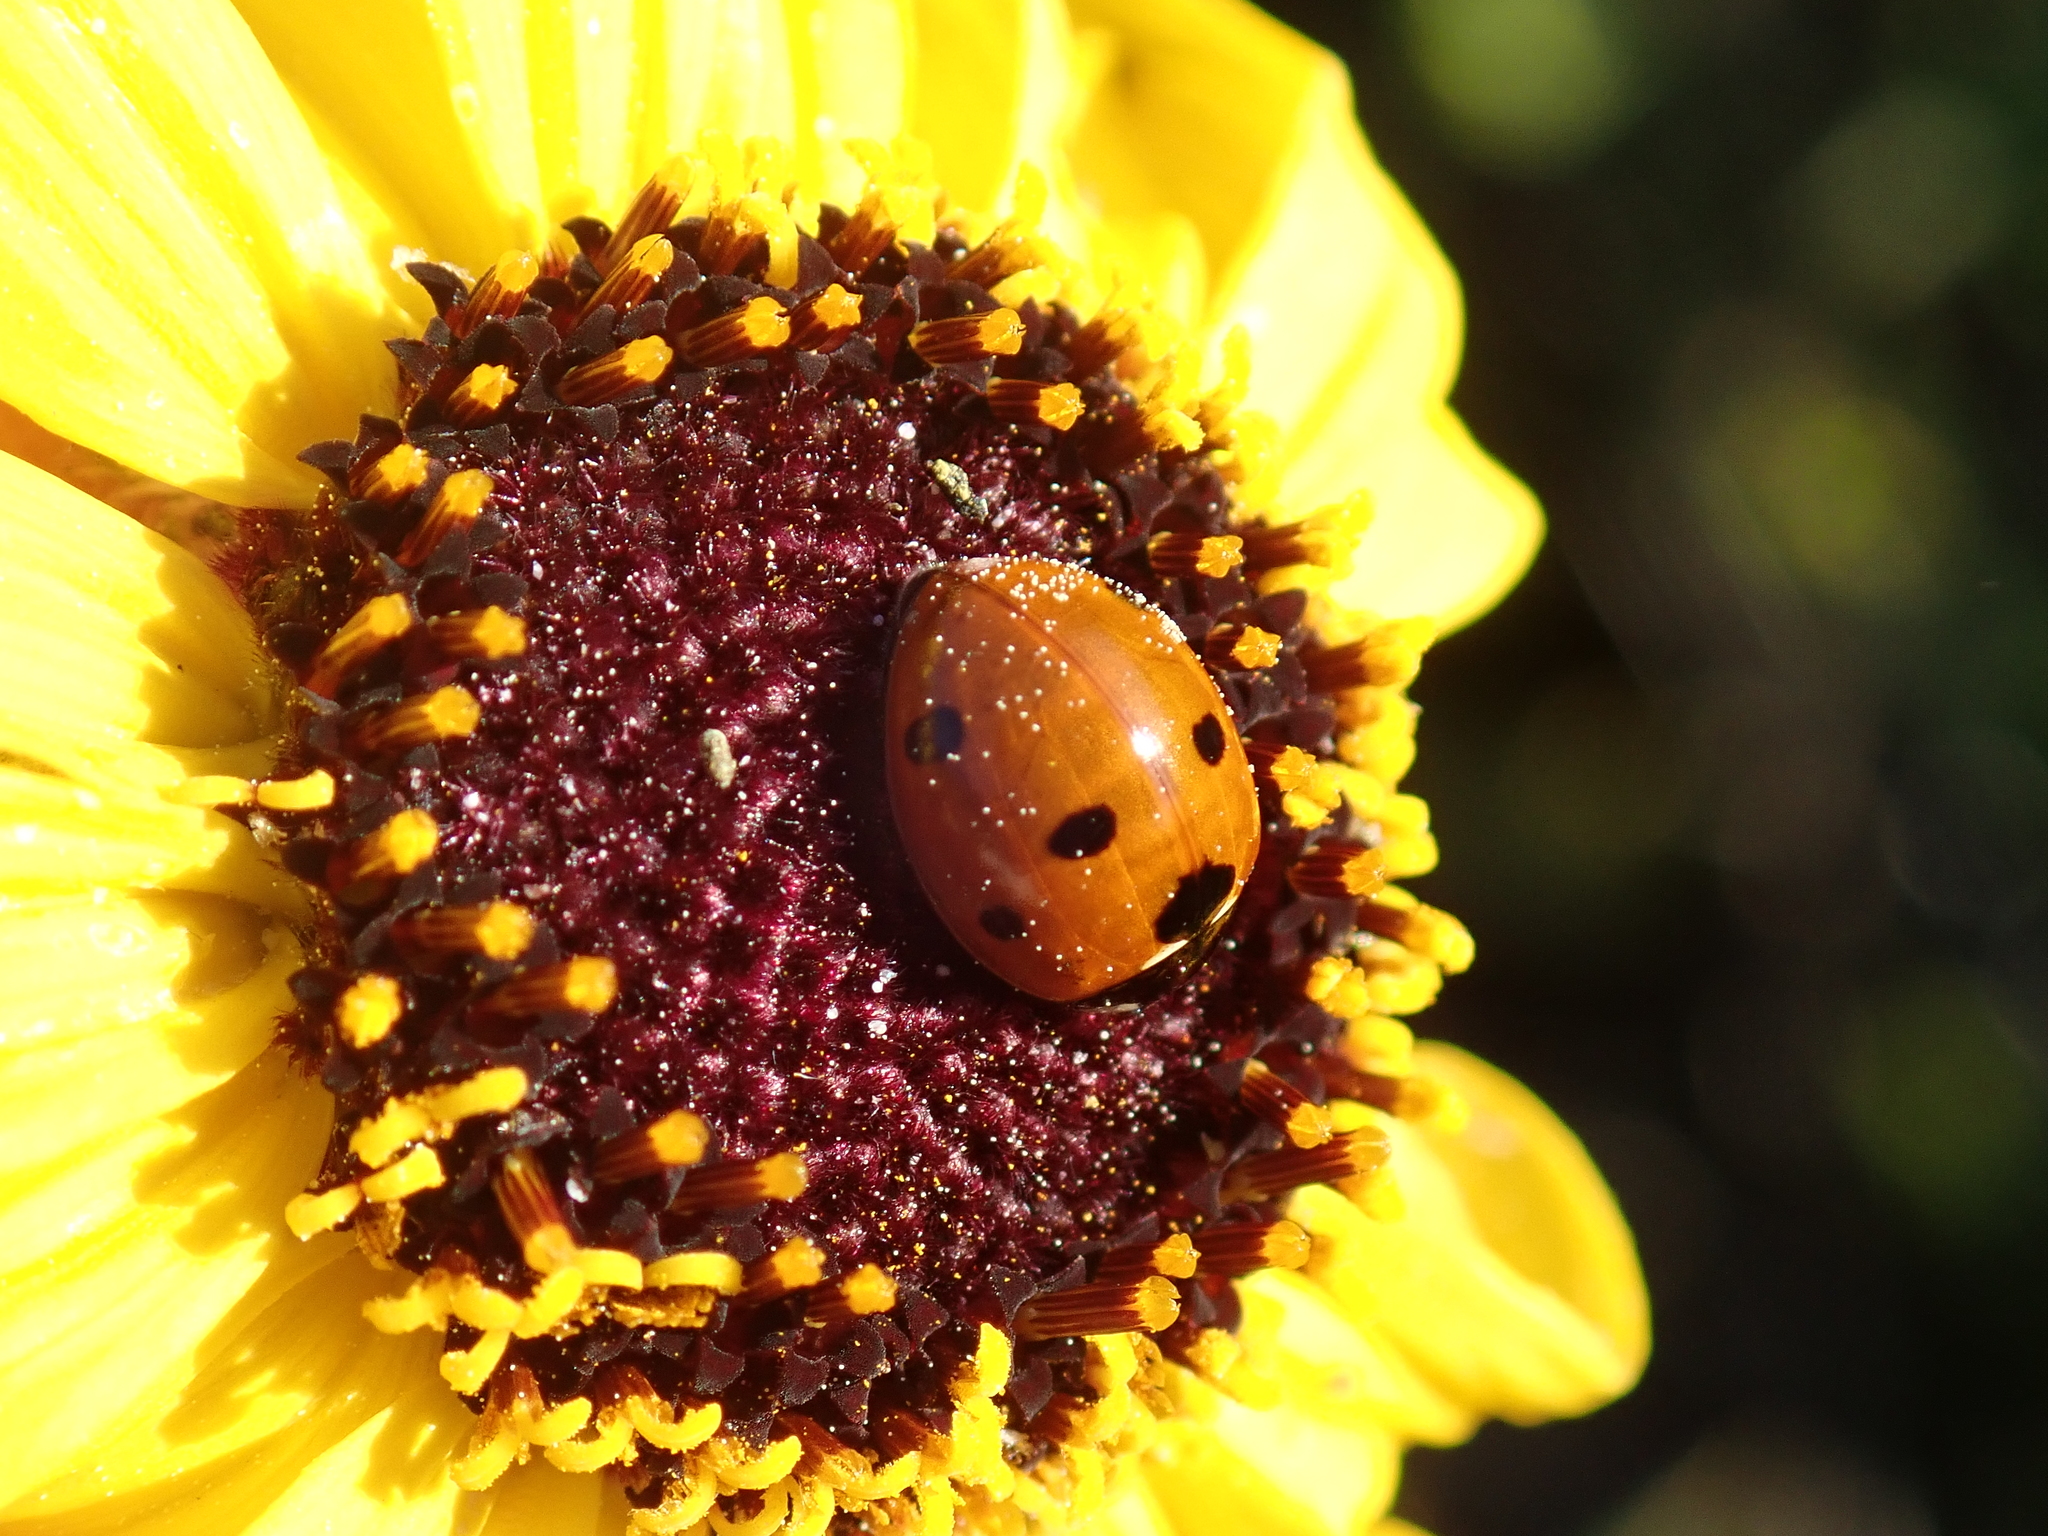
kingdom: Animalia
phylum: Arthropoda
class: Insecta
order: Coleoptera
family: Coccinellidae
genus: Coccinella
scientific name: Coccinella septempunctata
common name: Sevenspotted lady beetle
